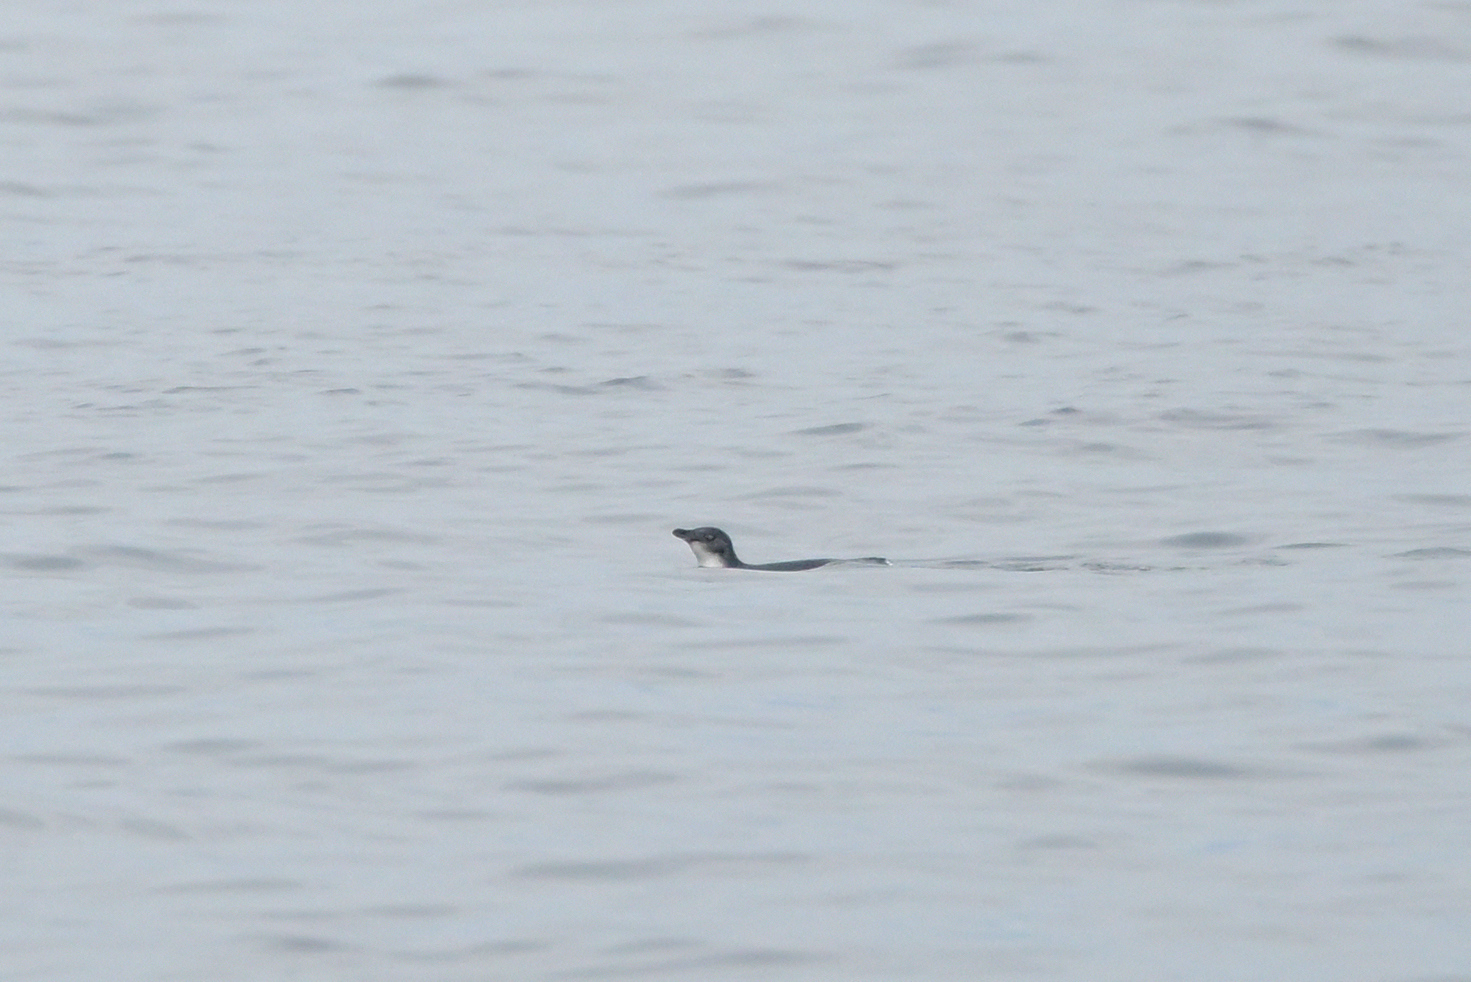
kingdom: Animalia
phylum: Chordata
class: Aves
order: Sphenisciformes
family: Spheniscidae
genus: Eudyptula
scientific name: Eudyptula minor
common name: Little penguin
